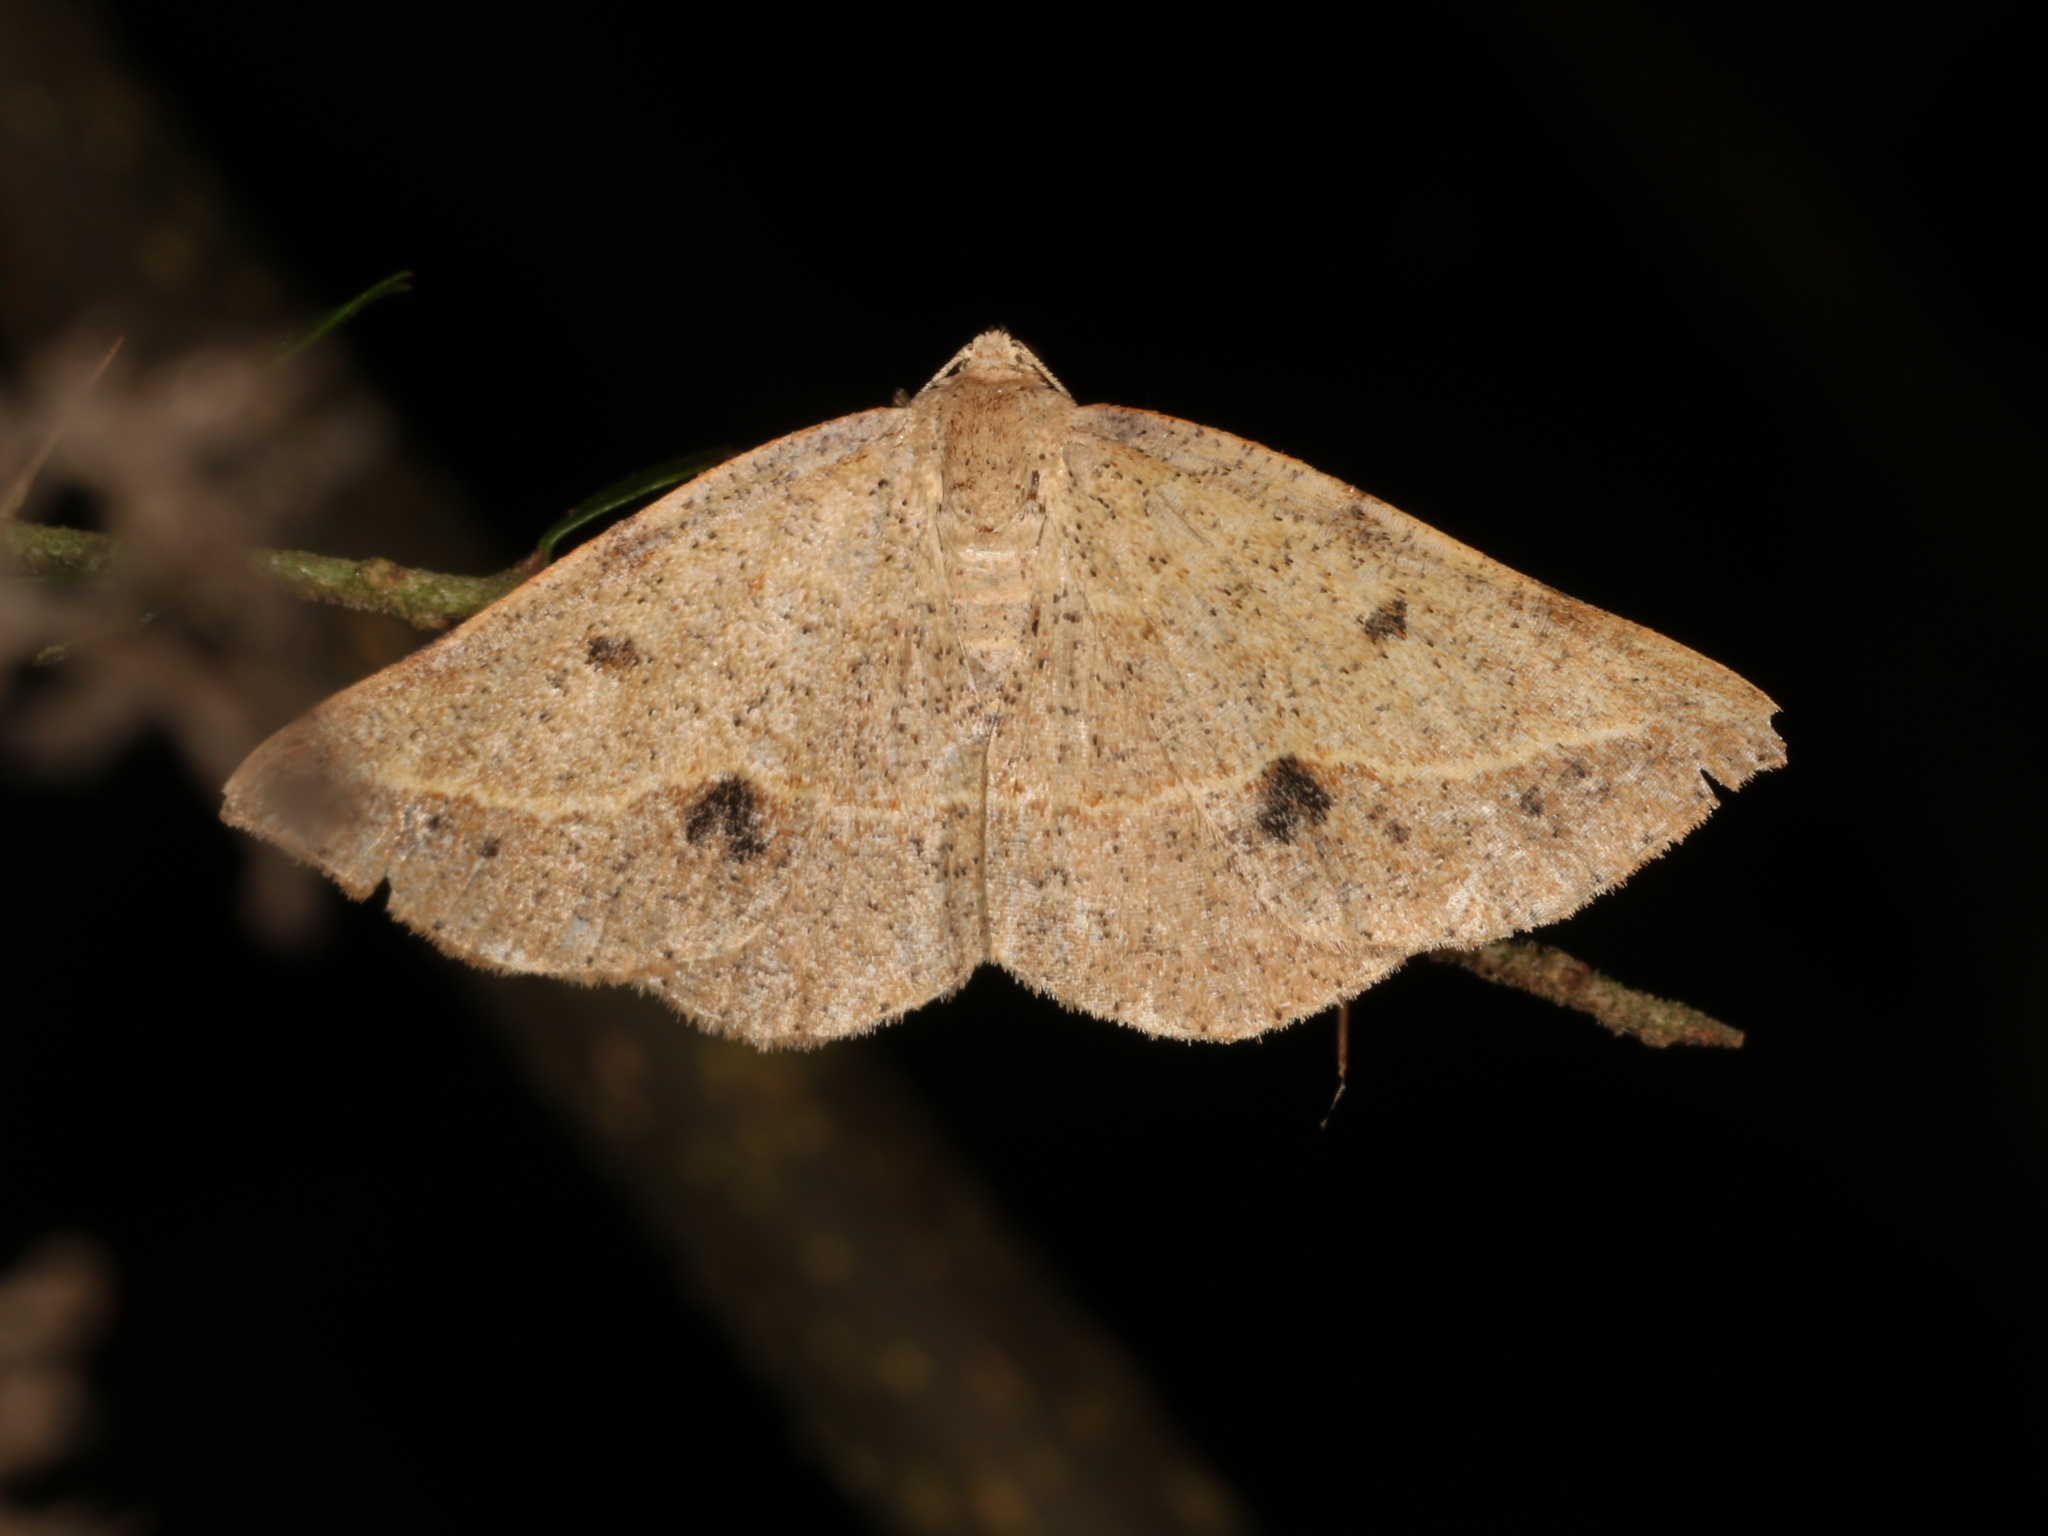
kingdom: Animalia
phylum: Arthropoda
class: Insecta
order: Lepidoptera
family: Geometridae
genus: Taxeotis
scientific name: Taxeotis epigaea
